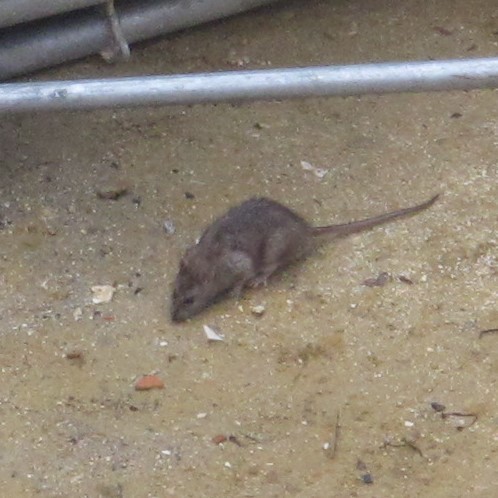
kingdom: Animalia
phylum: Chordata
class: Mammalia
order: Rodentia
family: Muridae
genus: Rattus
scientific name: Rattus norvegicus
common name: Brown rat
